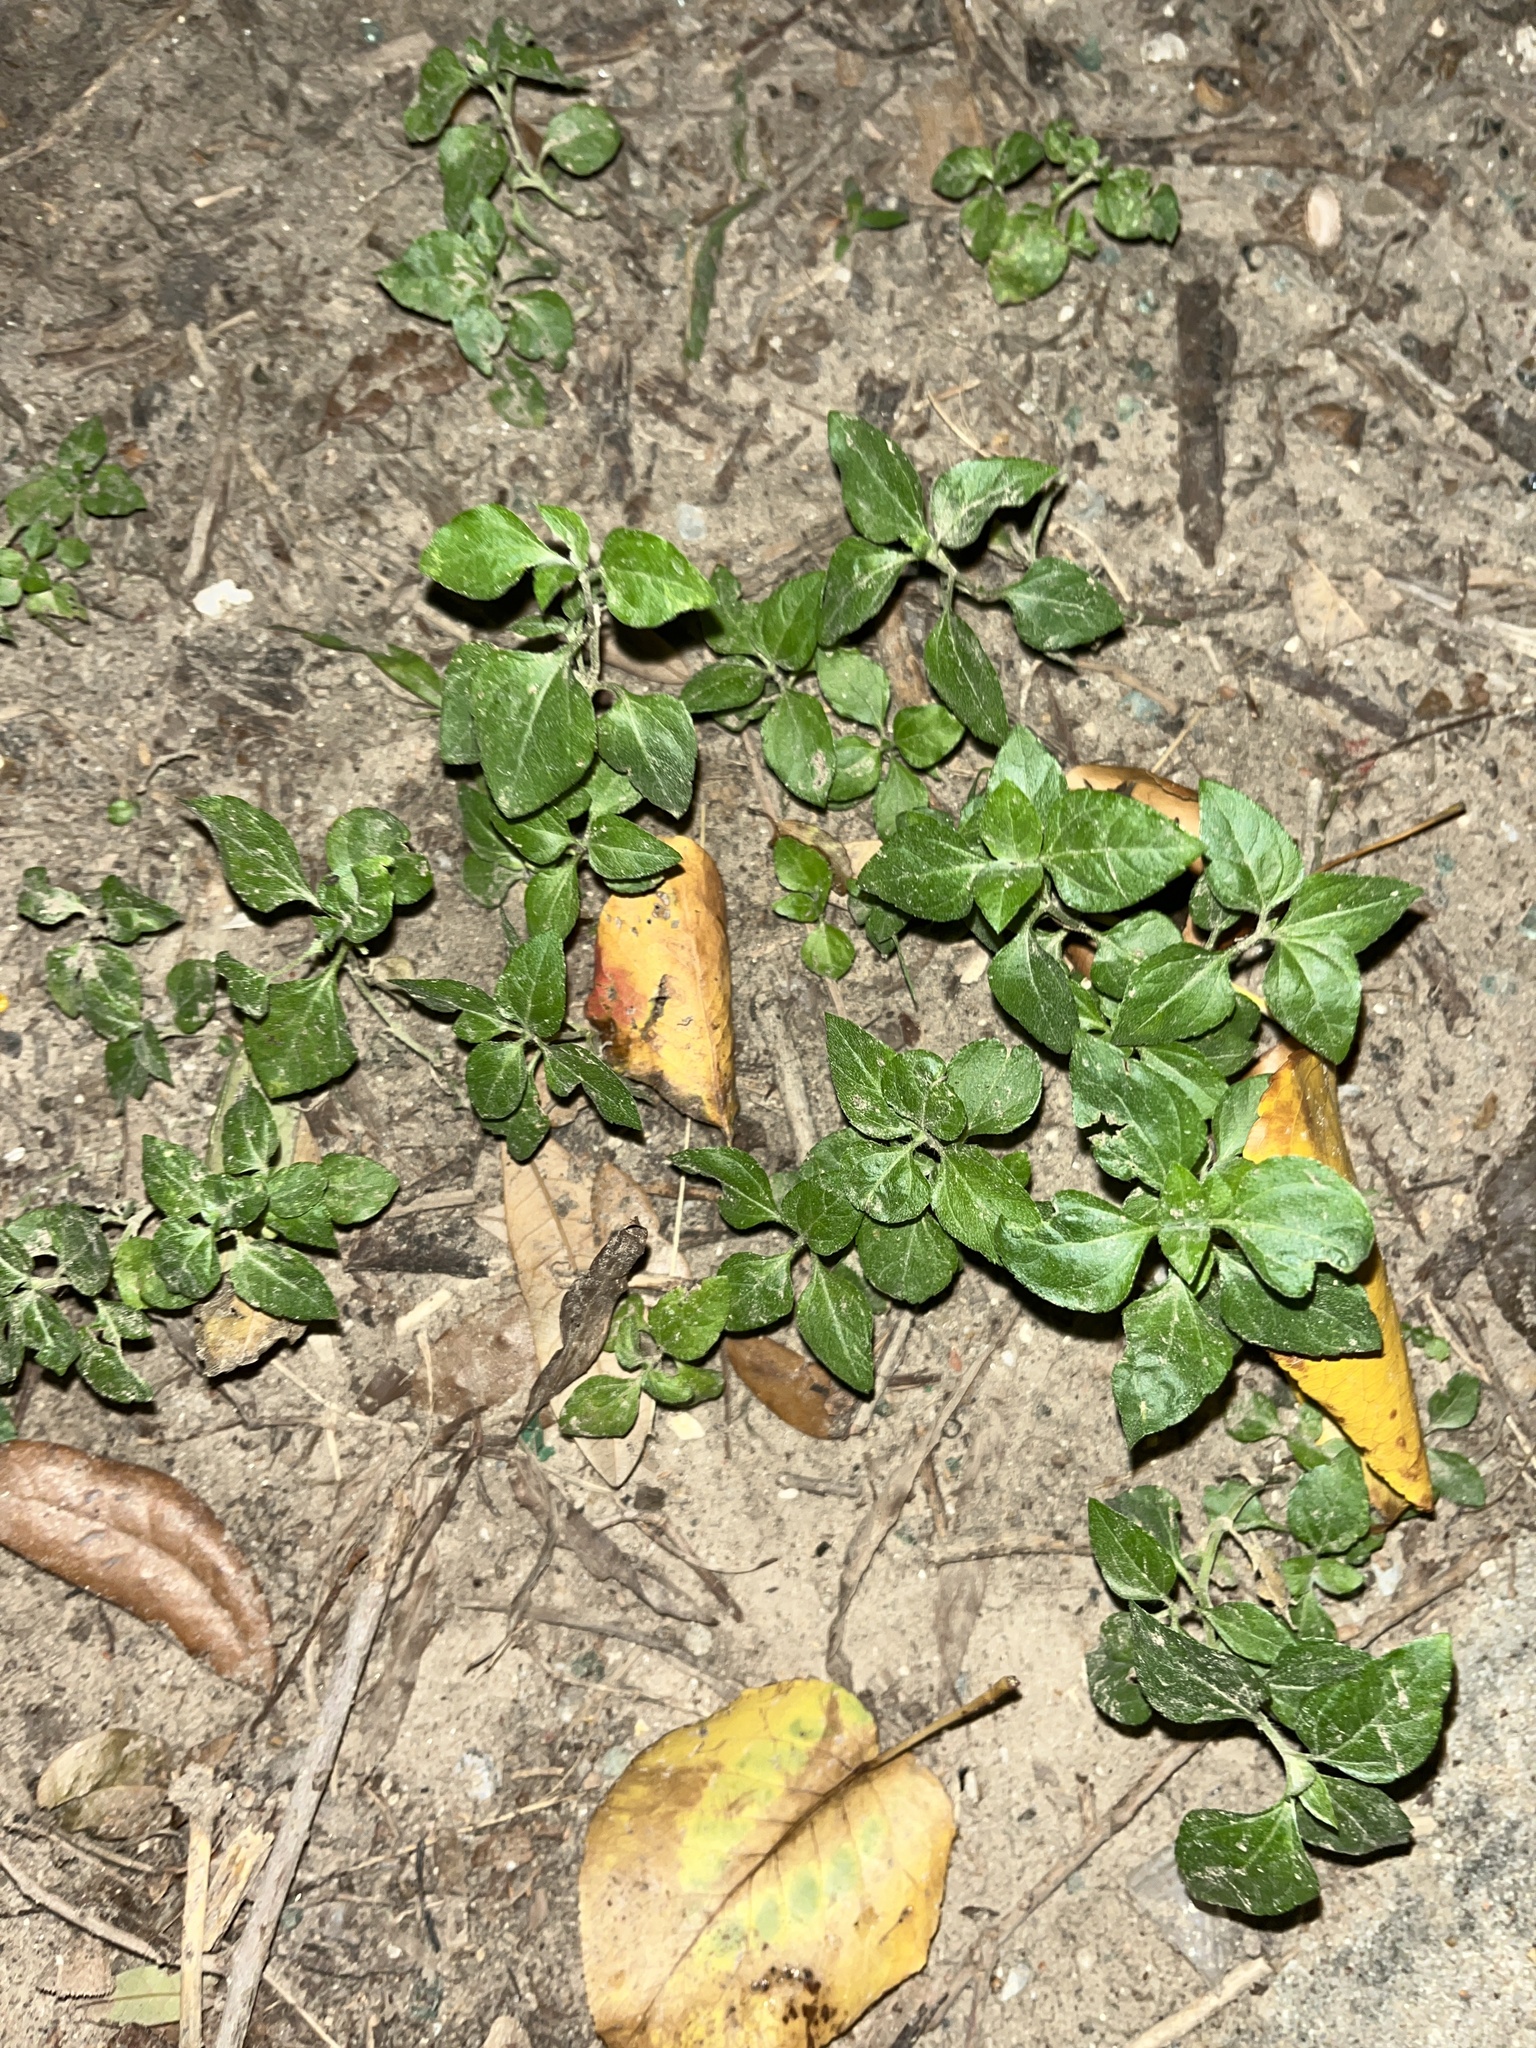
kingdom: Plantae
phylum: Tracheophyta
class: Magnoliopsida
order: Asterales
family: Asteraceae
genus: Calyptocarpus
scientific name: Calyptocarpus vialis
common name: Straggler daisy
